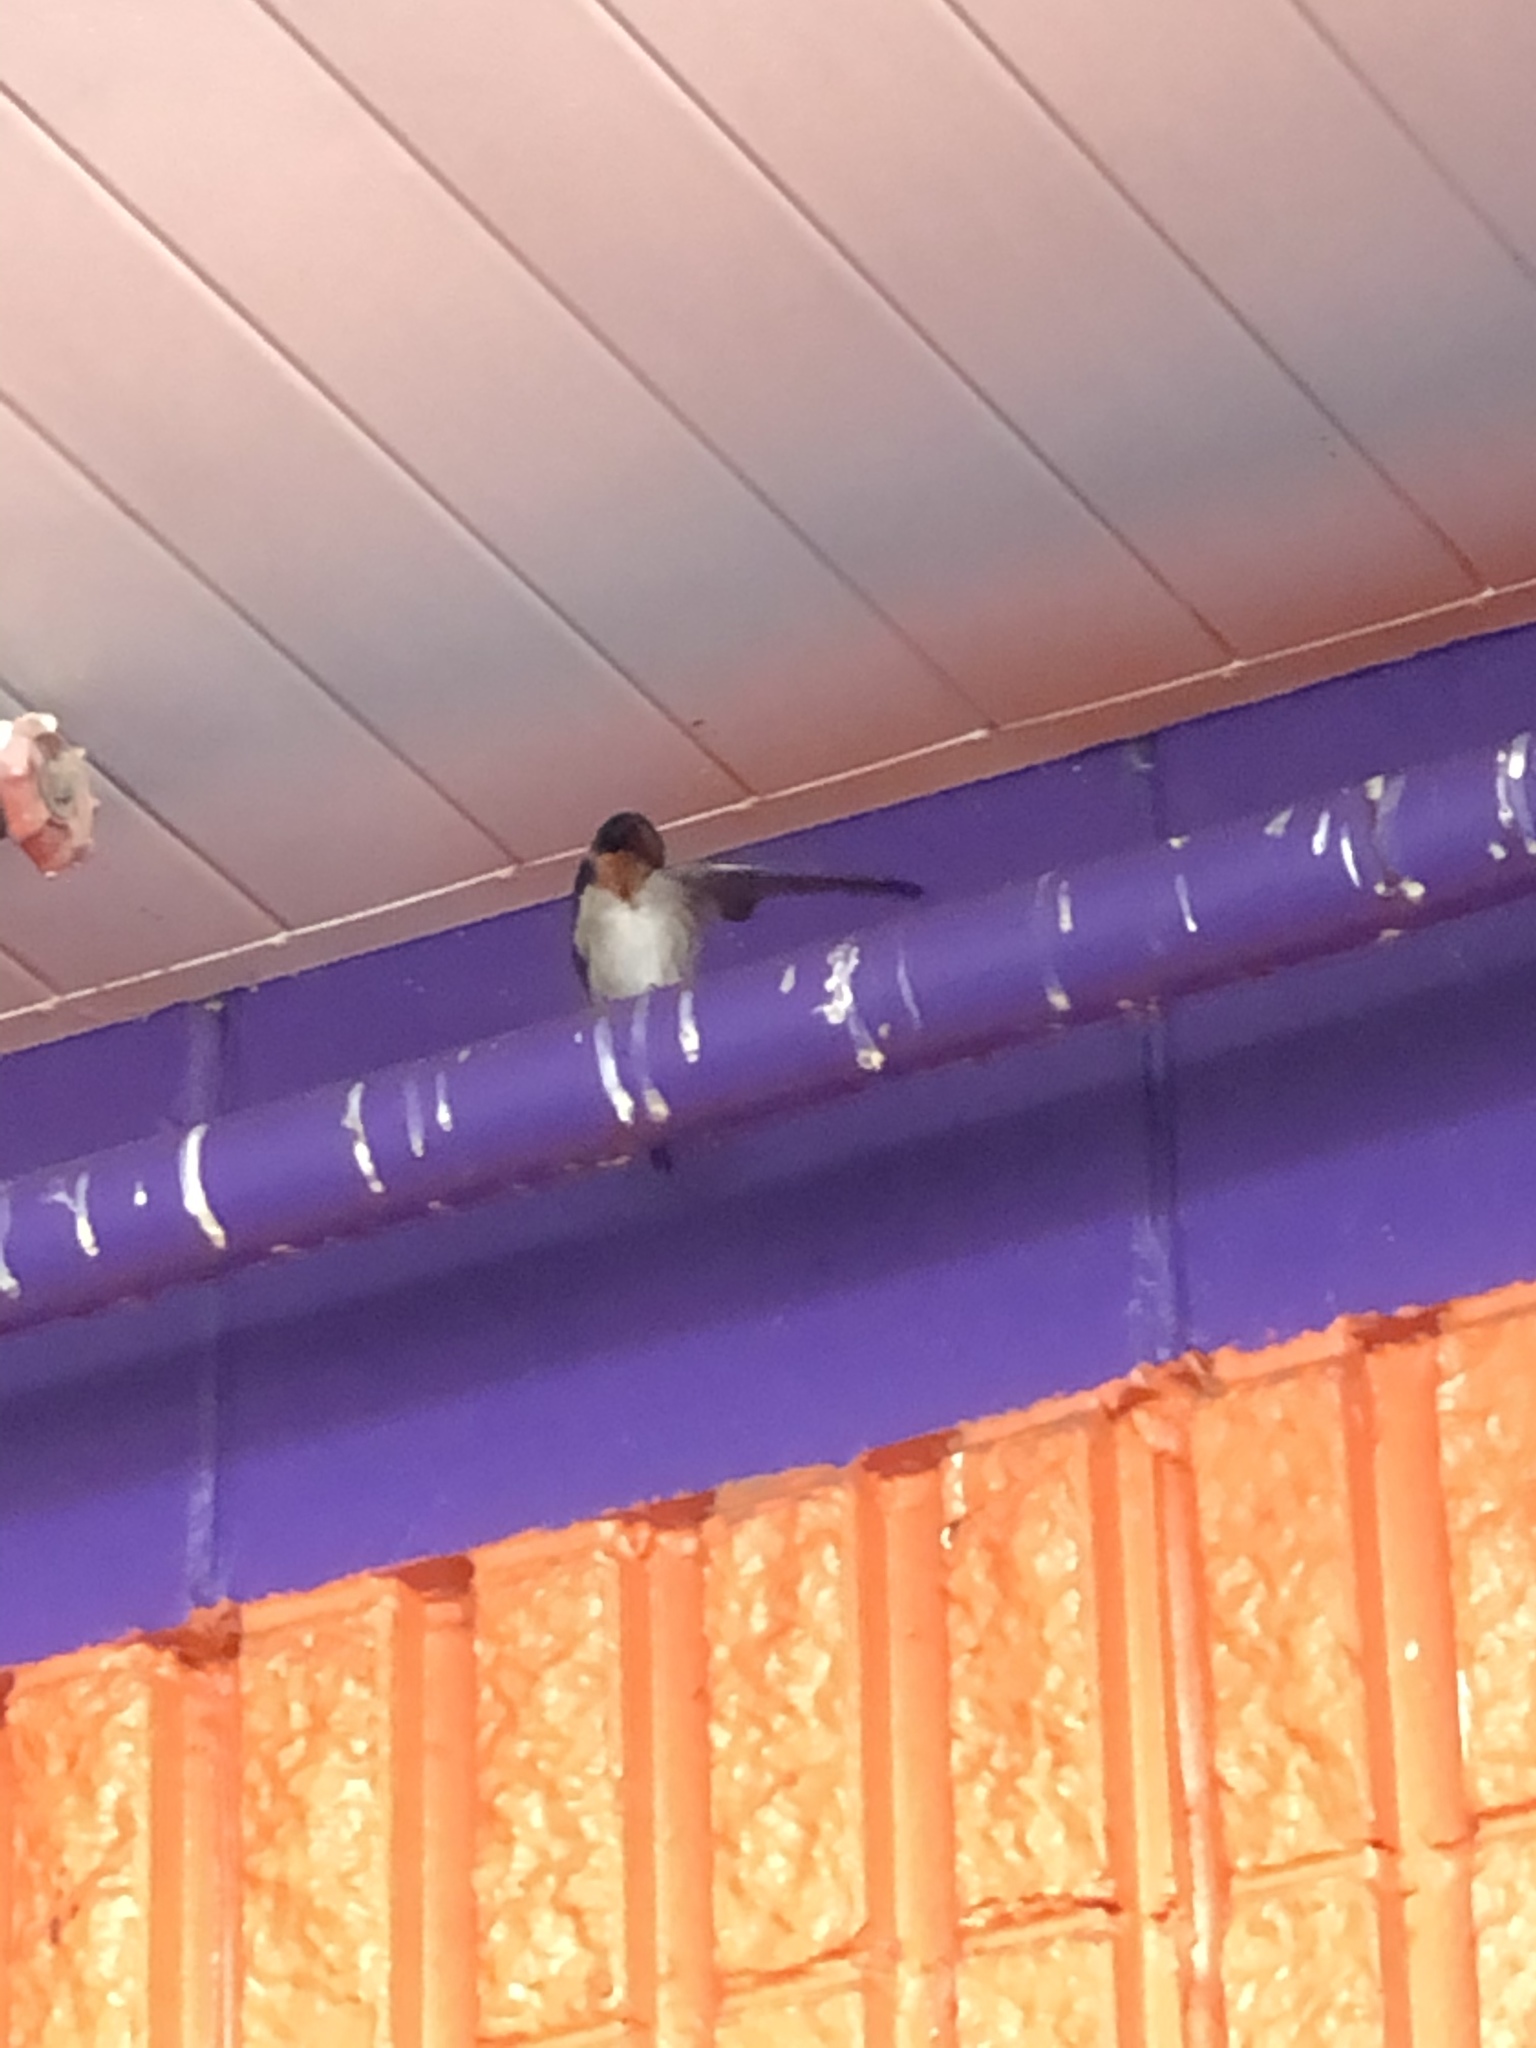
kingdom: Animalia
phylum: Chordata
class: Aves
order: Passeriformes
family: Hirundinidae
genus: Hirundo
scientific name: Hirundo neoxena
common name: Welcome swallow
